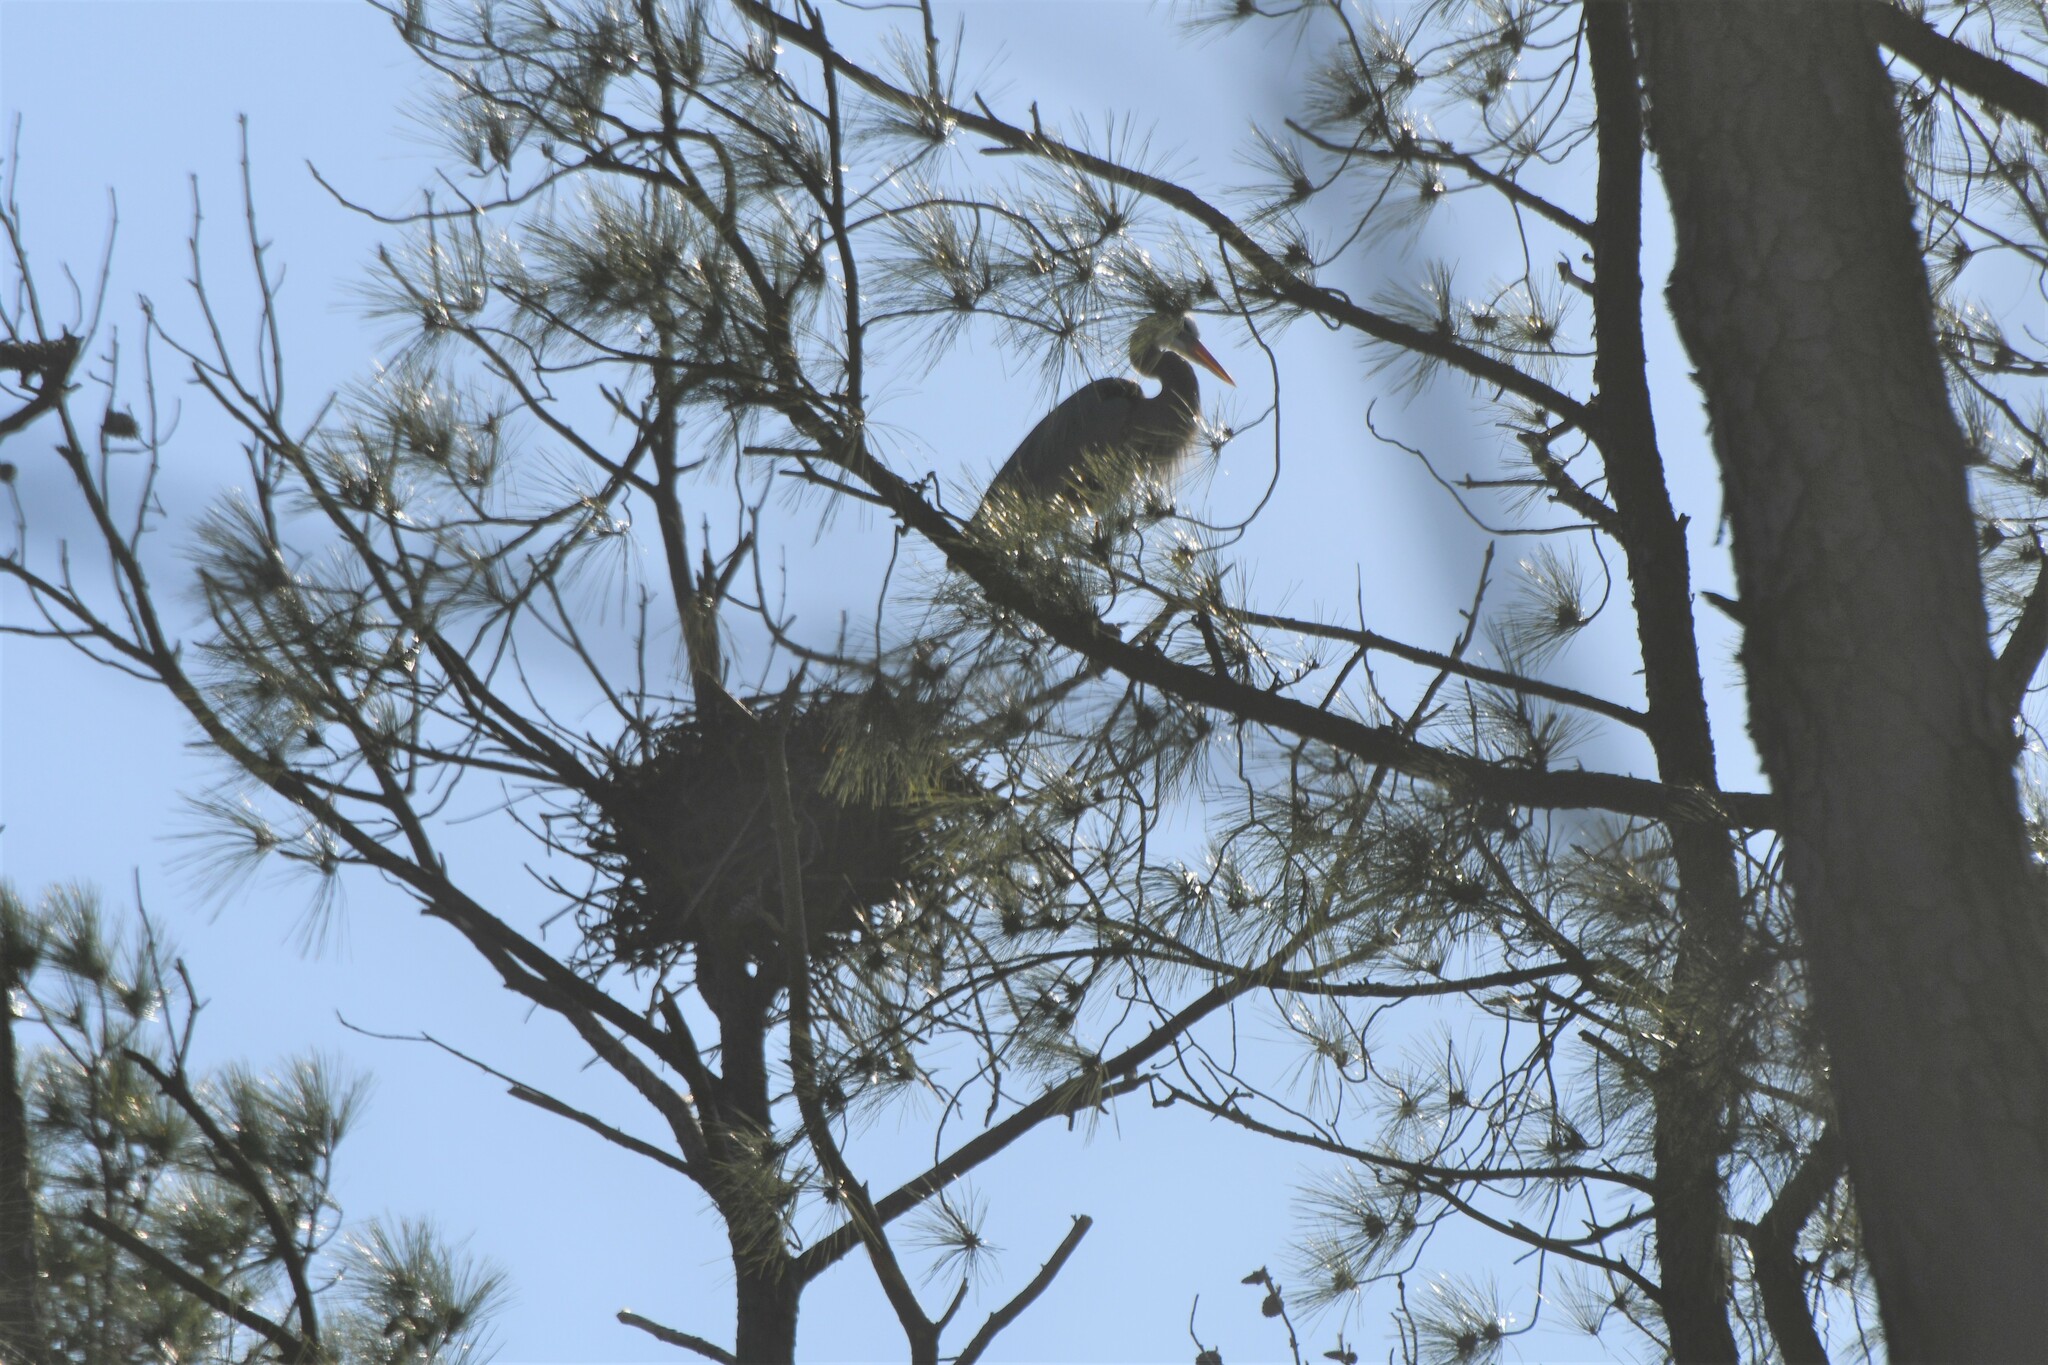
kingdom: Animalia
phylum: Chordata
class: Aves
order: Pelecaniformes
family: Ardeidae
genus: Ardea
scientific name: Ardea herodias
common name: Great blue heron
